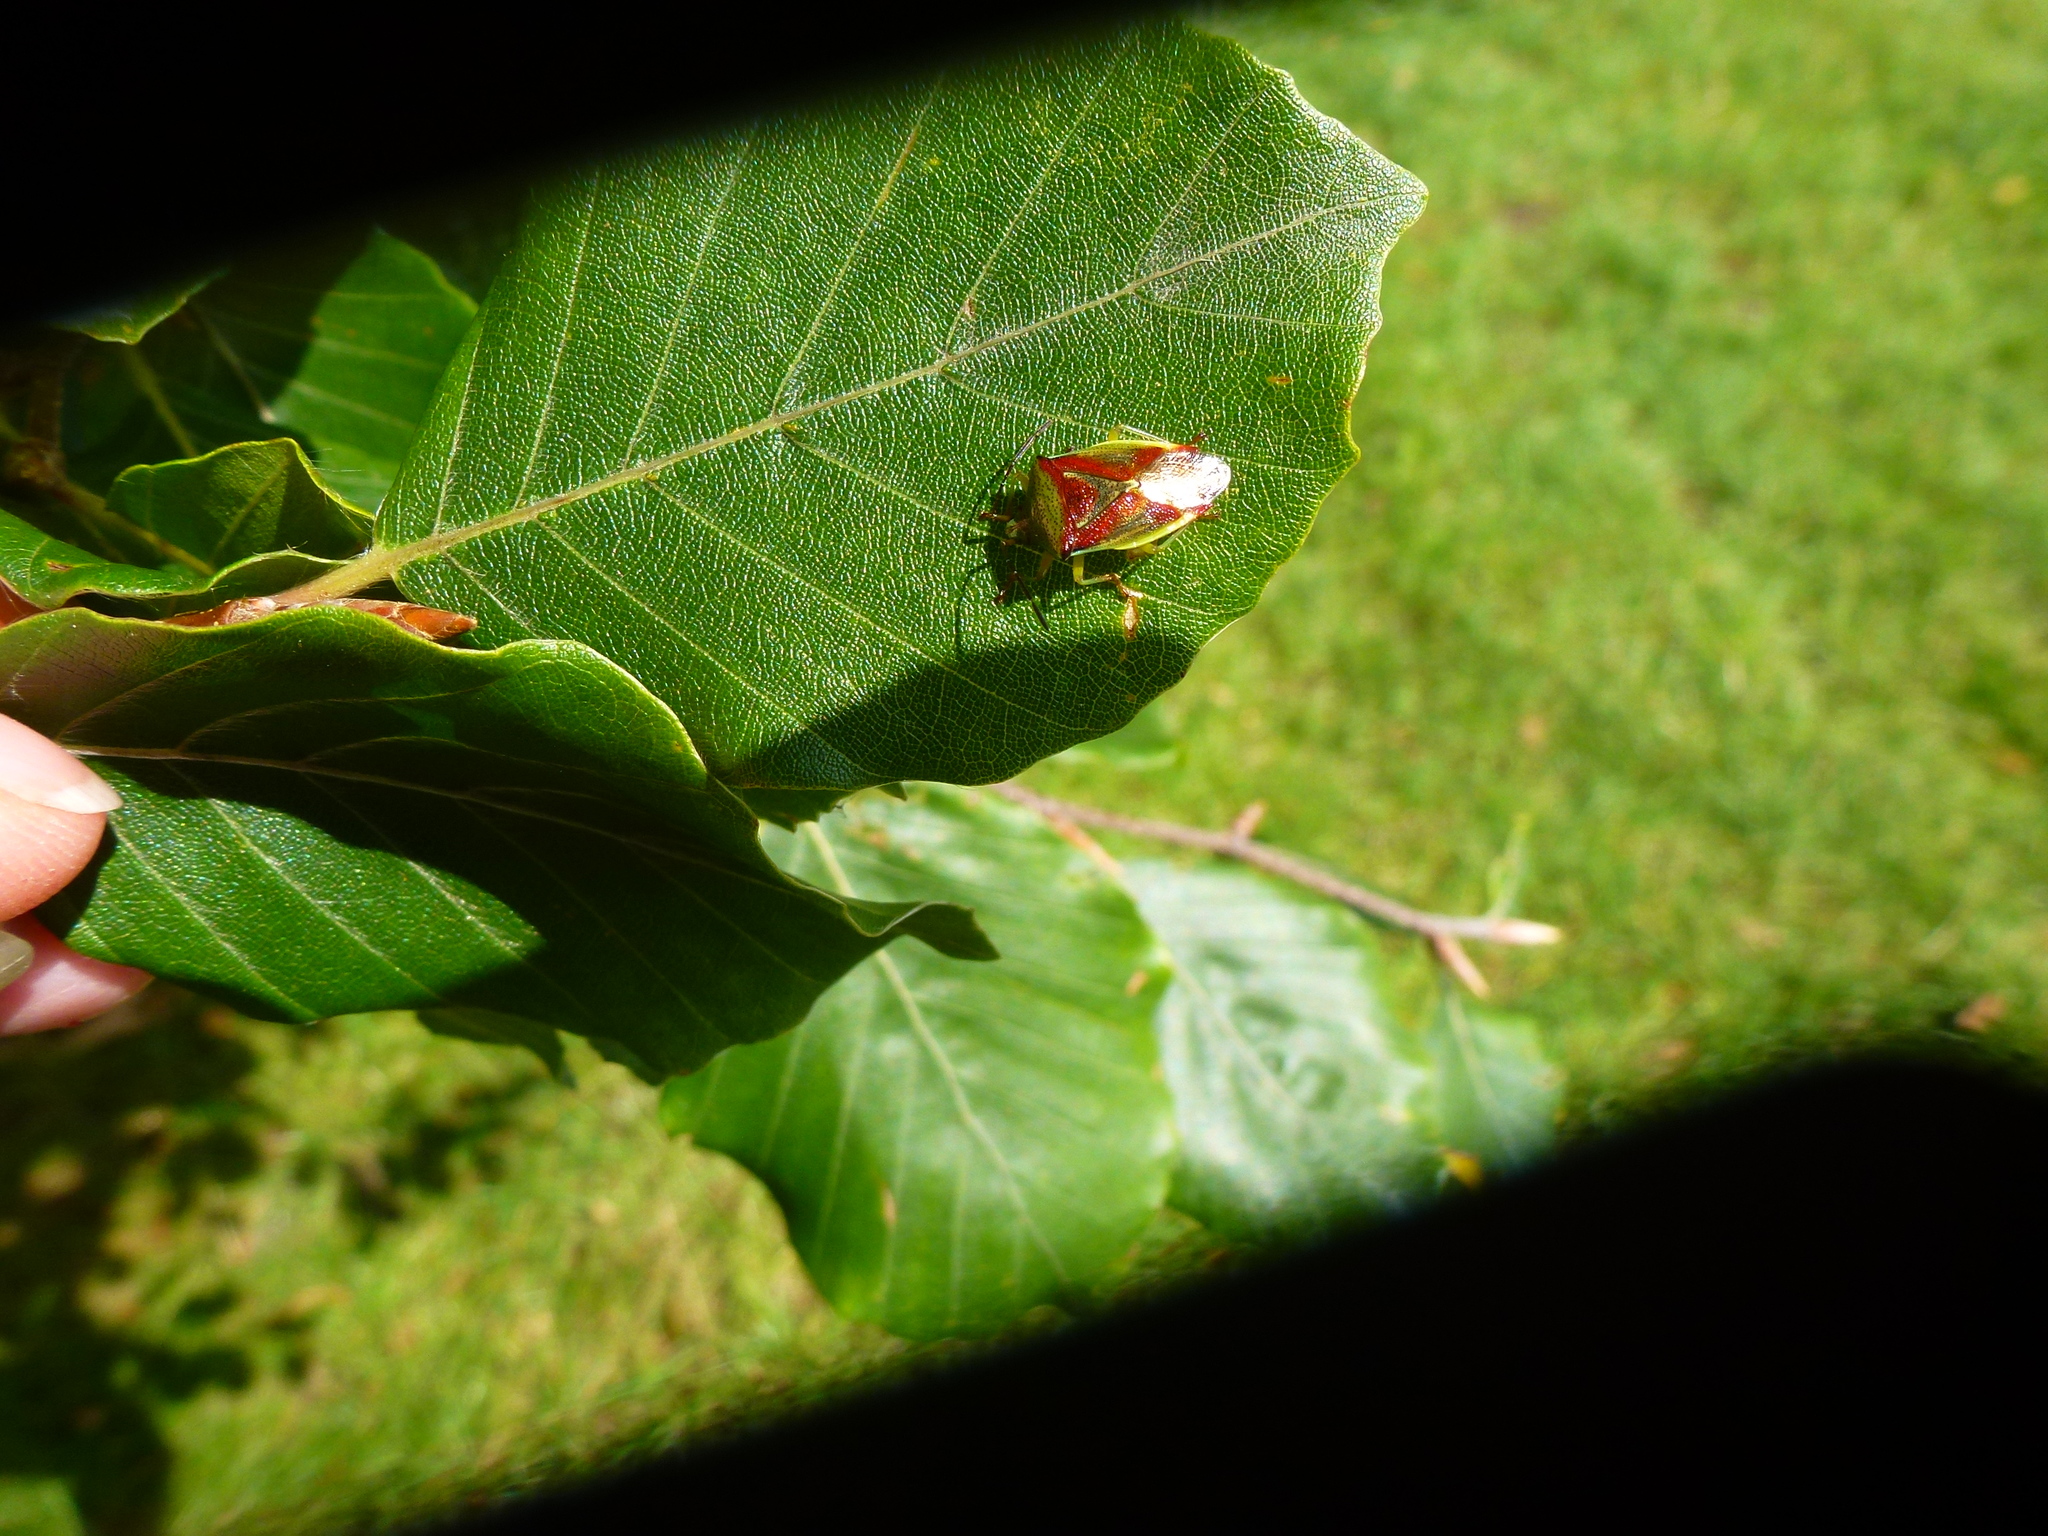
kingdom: Animalia
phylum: Arthropoda
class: Insecta
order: Hemiptera
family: Acanthosomatidae
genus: Elasmostethus
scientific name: Elasmostethus interstinctus
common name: Birch shieldbug
